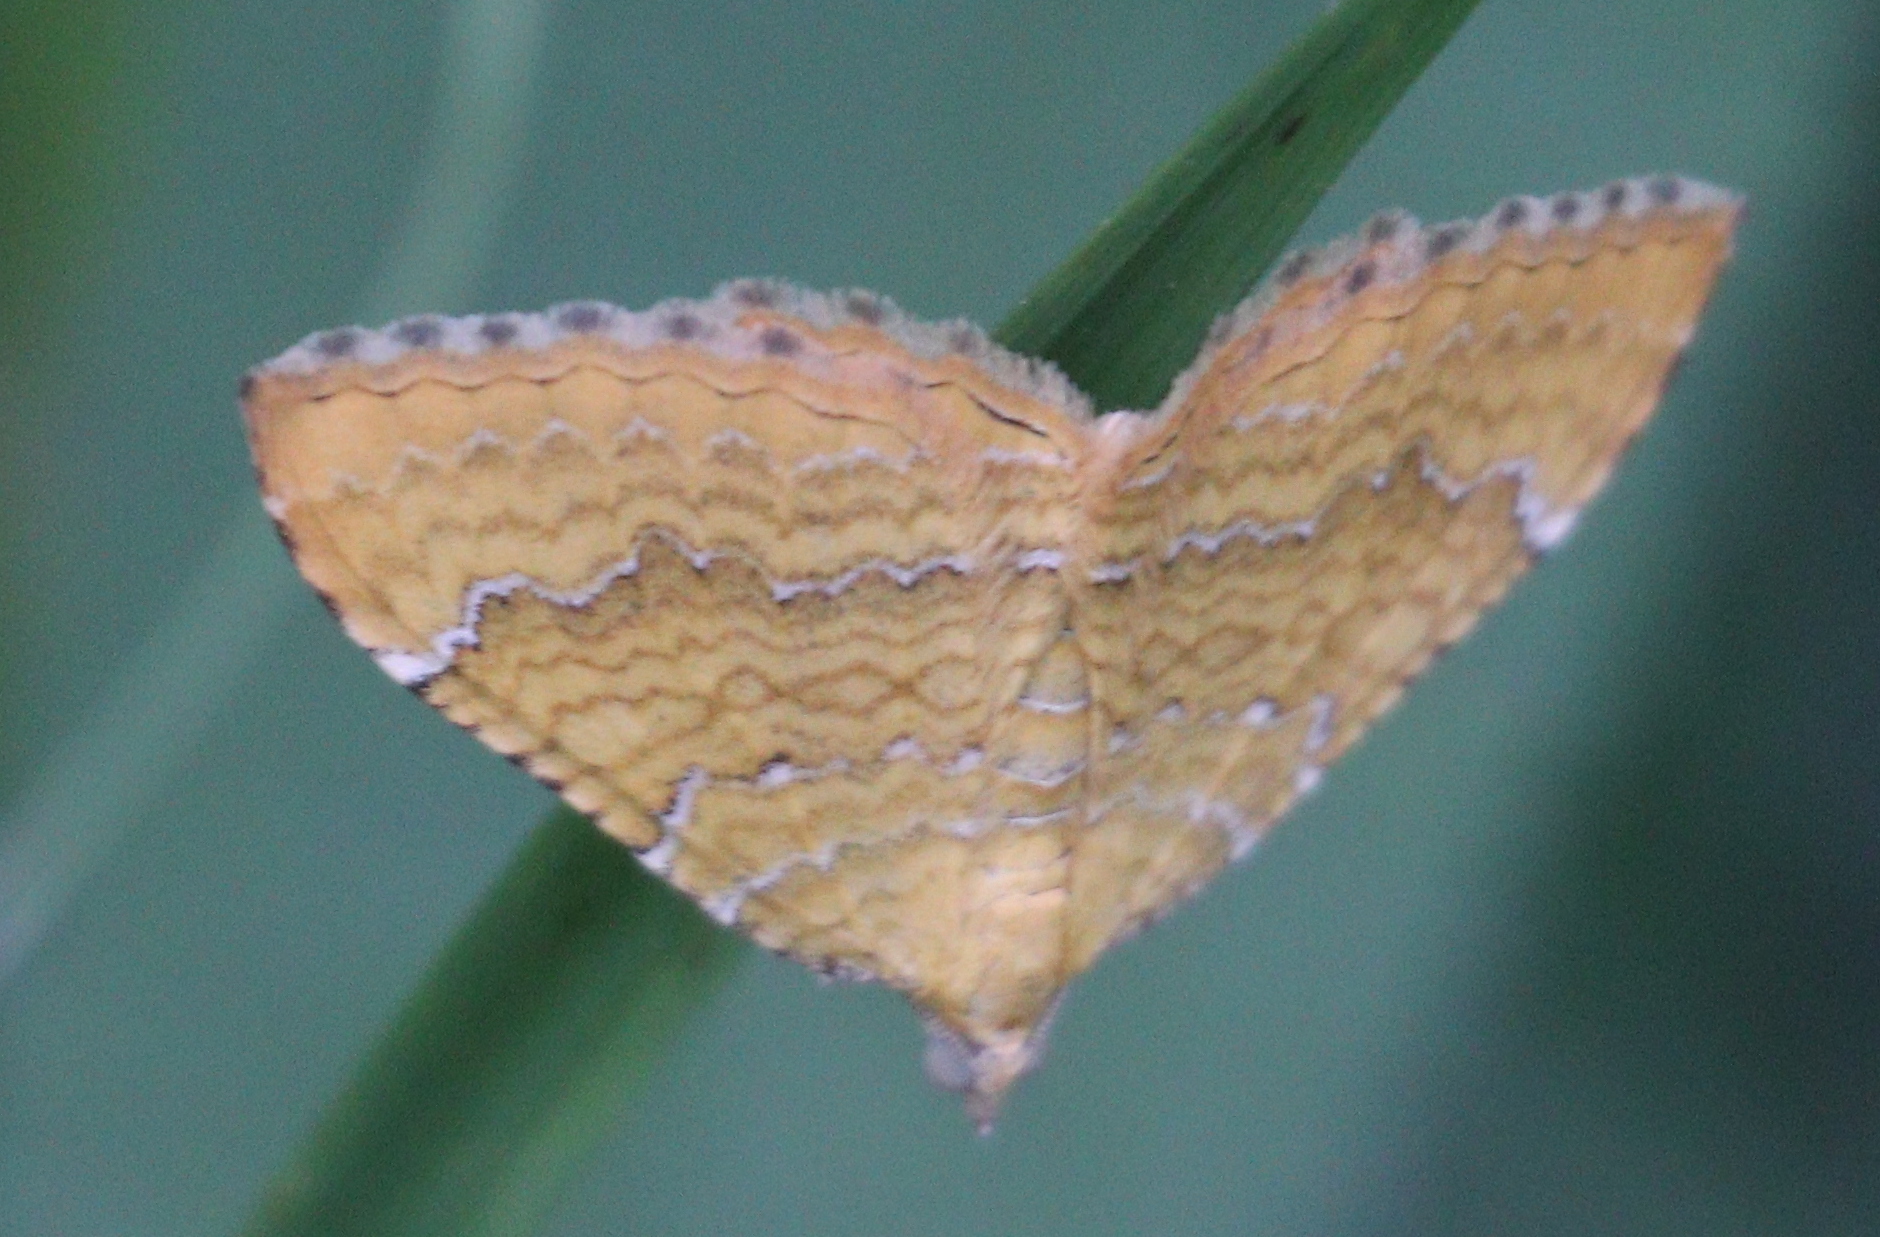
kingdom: Animalia
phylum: Arthropoda
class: Insecta
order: Lepidoptera
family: Geometridae
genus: Camptogramma
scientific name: Camptogramma bilineata
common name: Yellow shell
